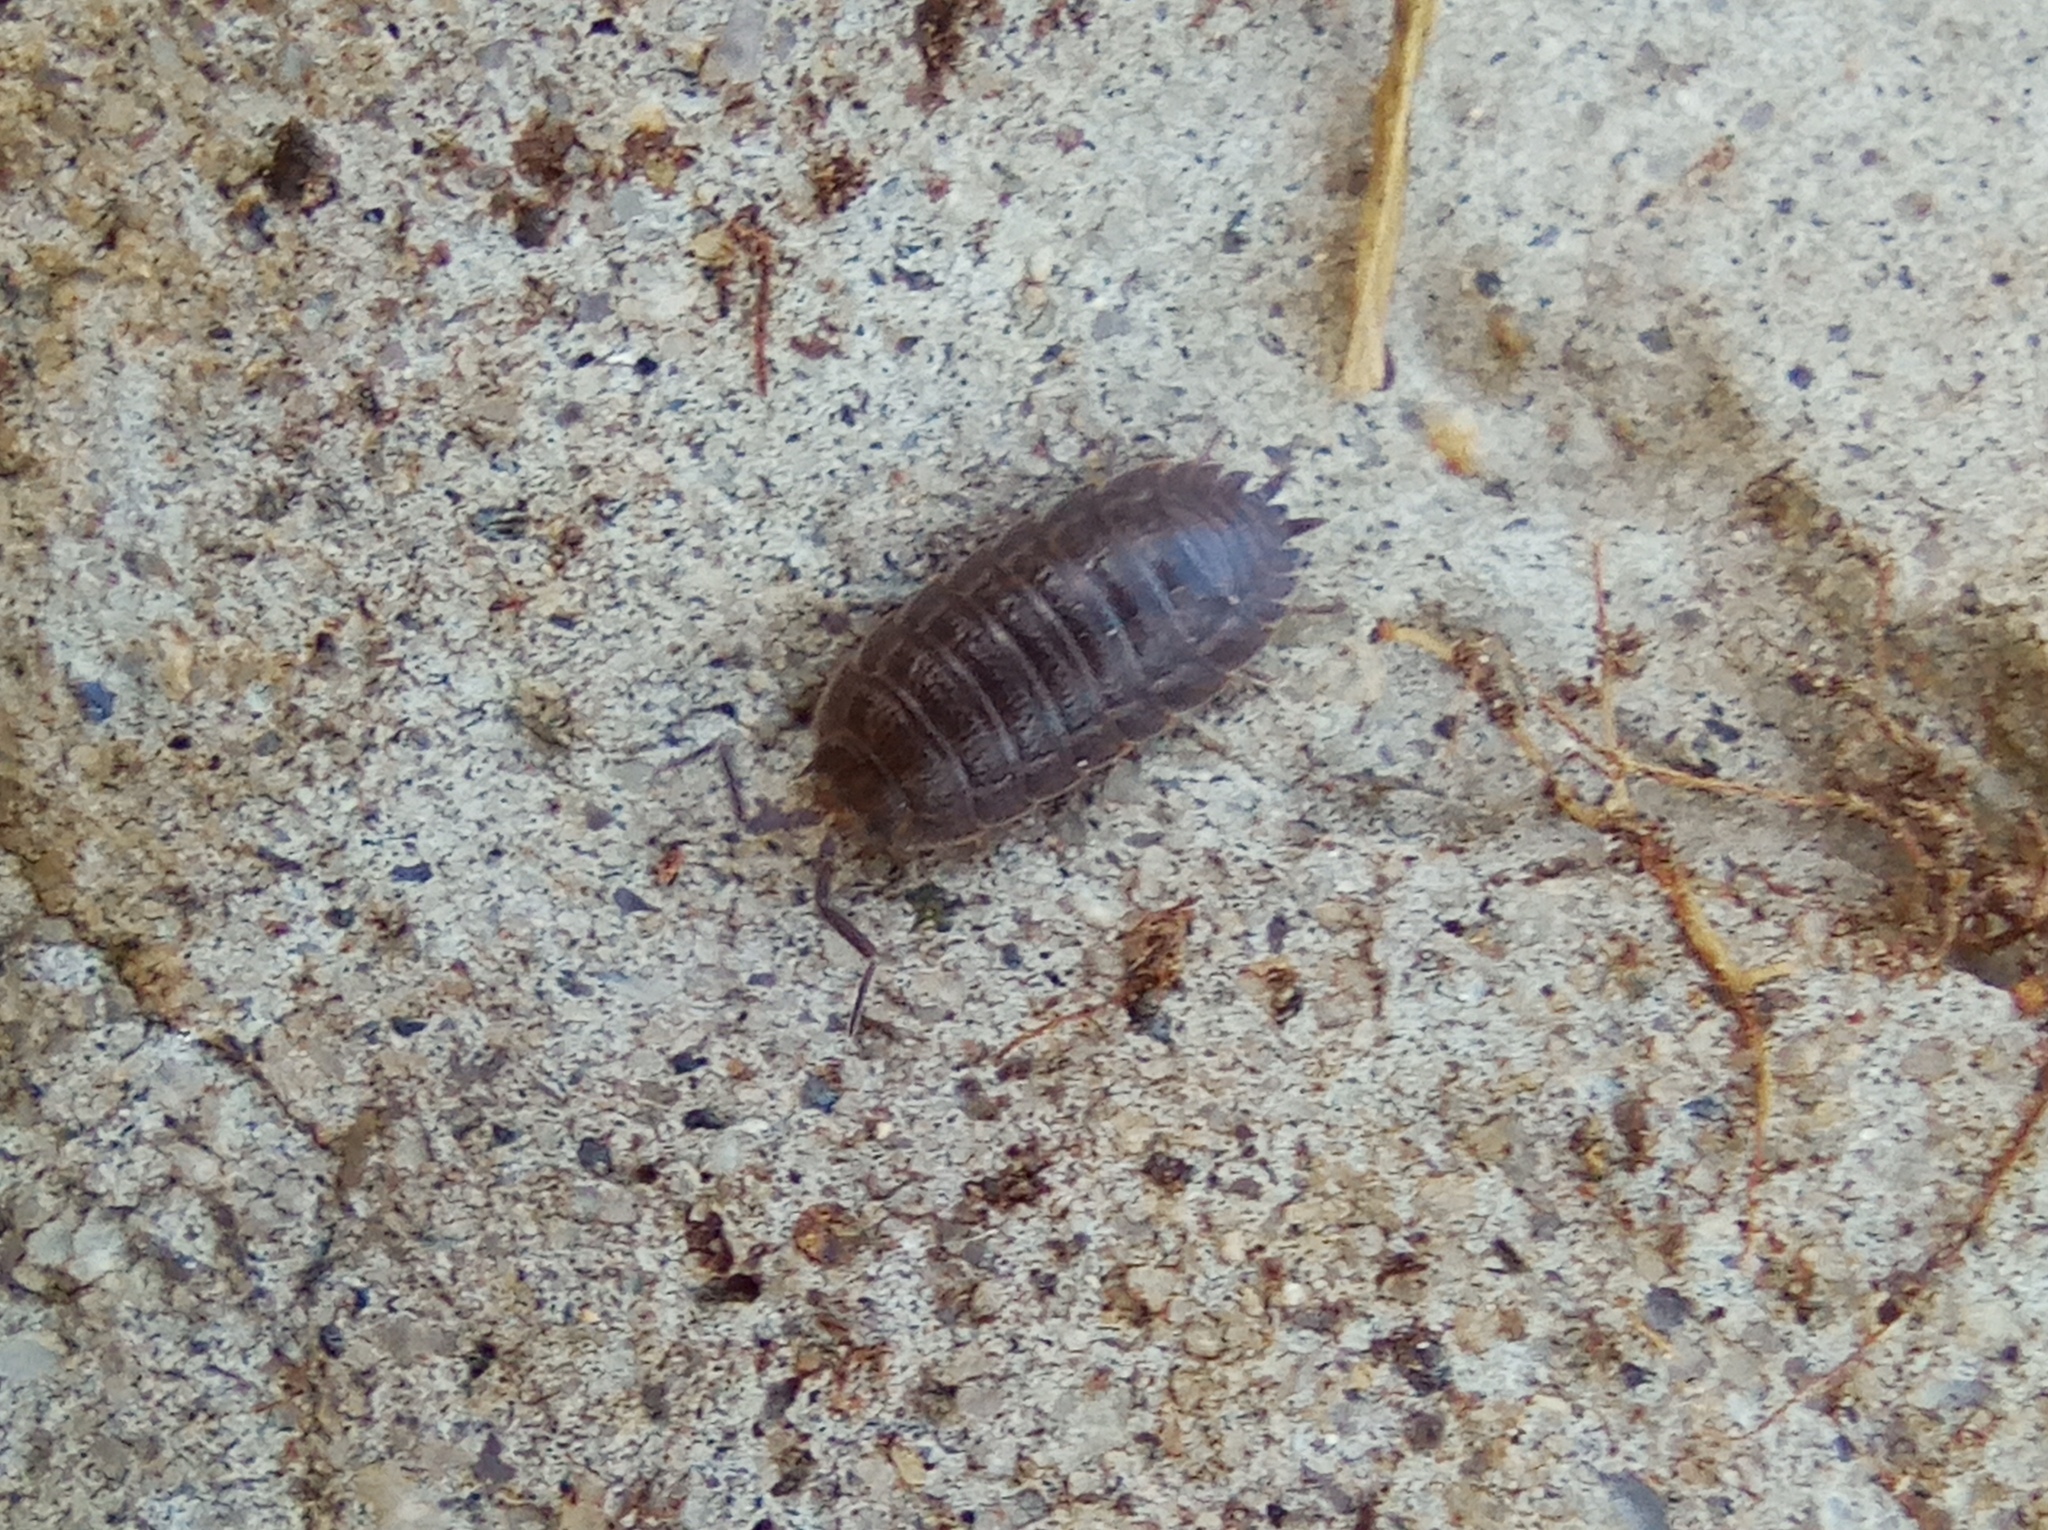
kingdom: Animalia
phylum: Arthropoda
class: Malacostraca
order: Isopoda
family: Trachelipodidae
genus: Trachelipus
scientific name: Trachelipus rathkii
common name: Isopod
